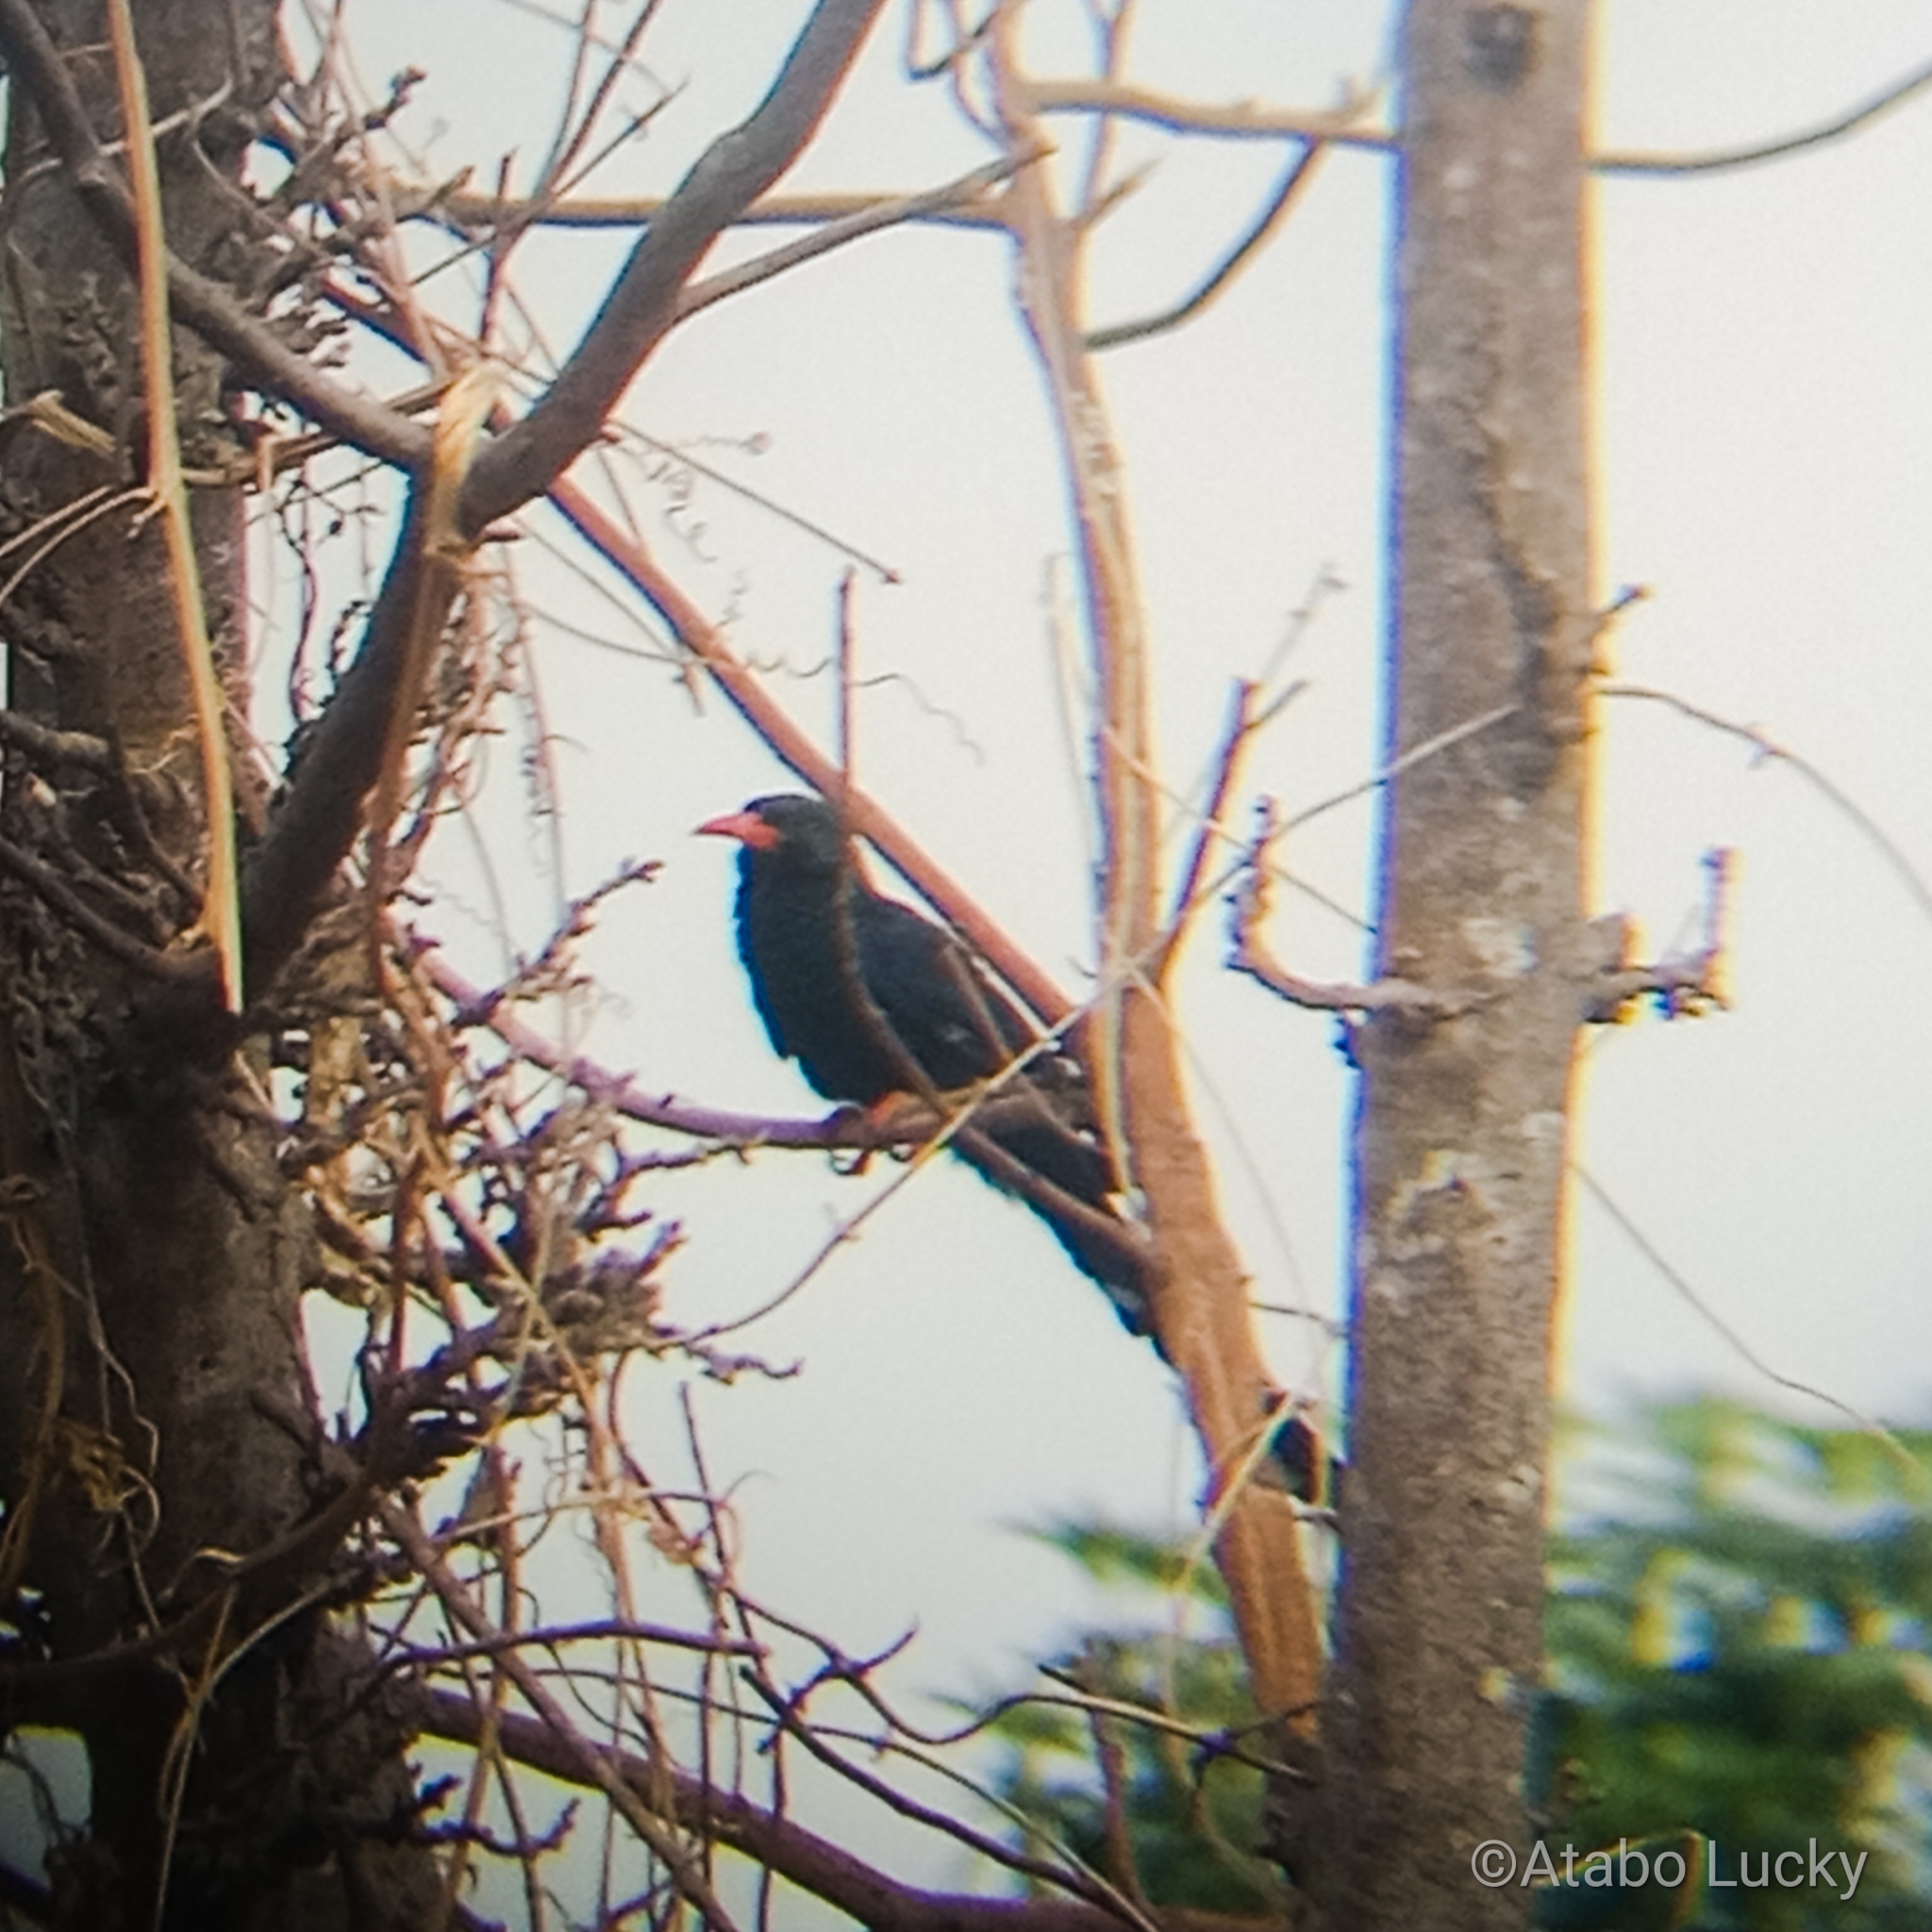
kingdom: Animalia
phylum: Chordata
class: Aves
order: Bucerotiformes
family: Phoeniculidae
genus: Phoeniculus
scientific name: Phoeniculus purpureus
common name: Green woodhoopoe
